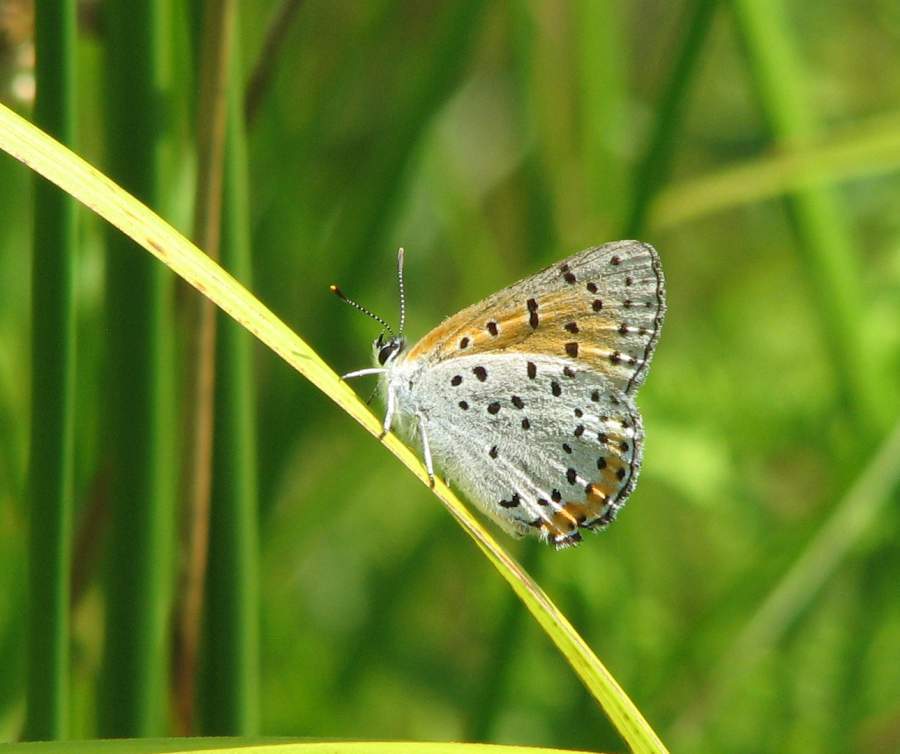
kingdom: Animalia
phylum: Arthropoda
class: Insecta
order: Lepidoptera
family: Lycaenidae
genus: Tharsalea
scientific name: Tharsalea hyllus
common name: Bronze copper
